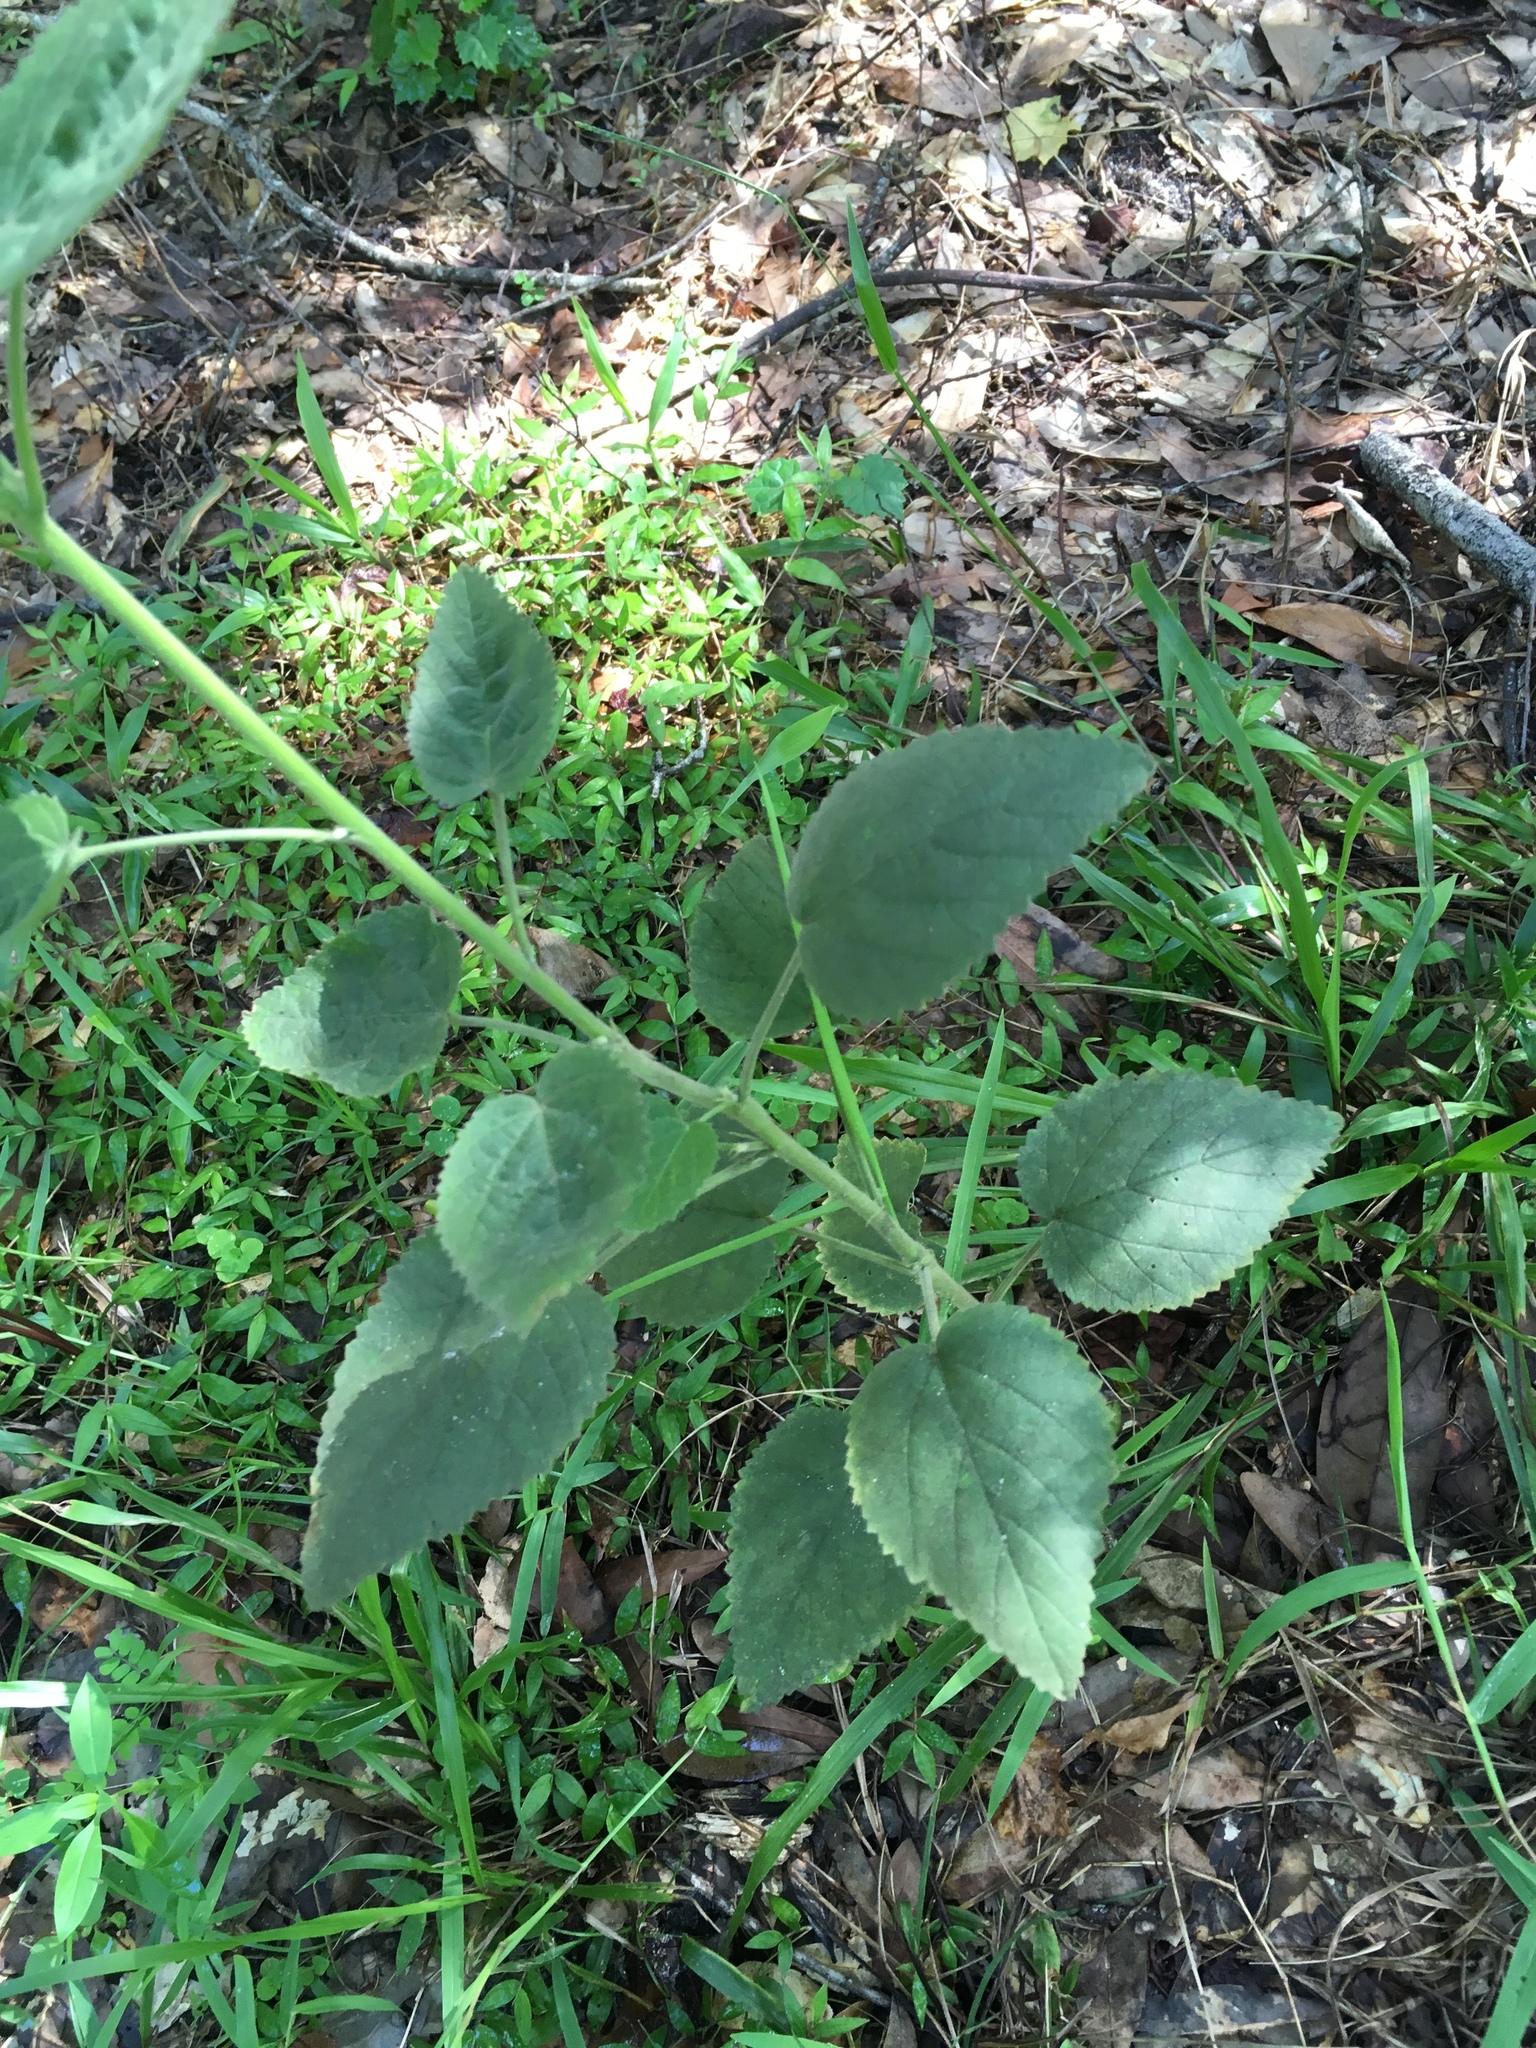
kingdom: Plantae
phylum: Tracheophyta
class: Magnoliopsida
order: Malvales
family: Malvaceae
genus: Sida
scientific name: Sida cordifolia
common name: Ilima
